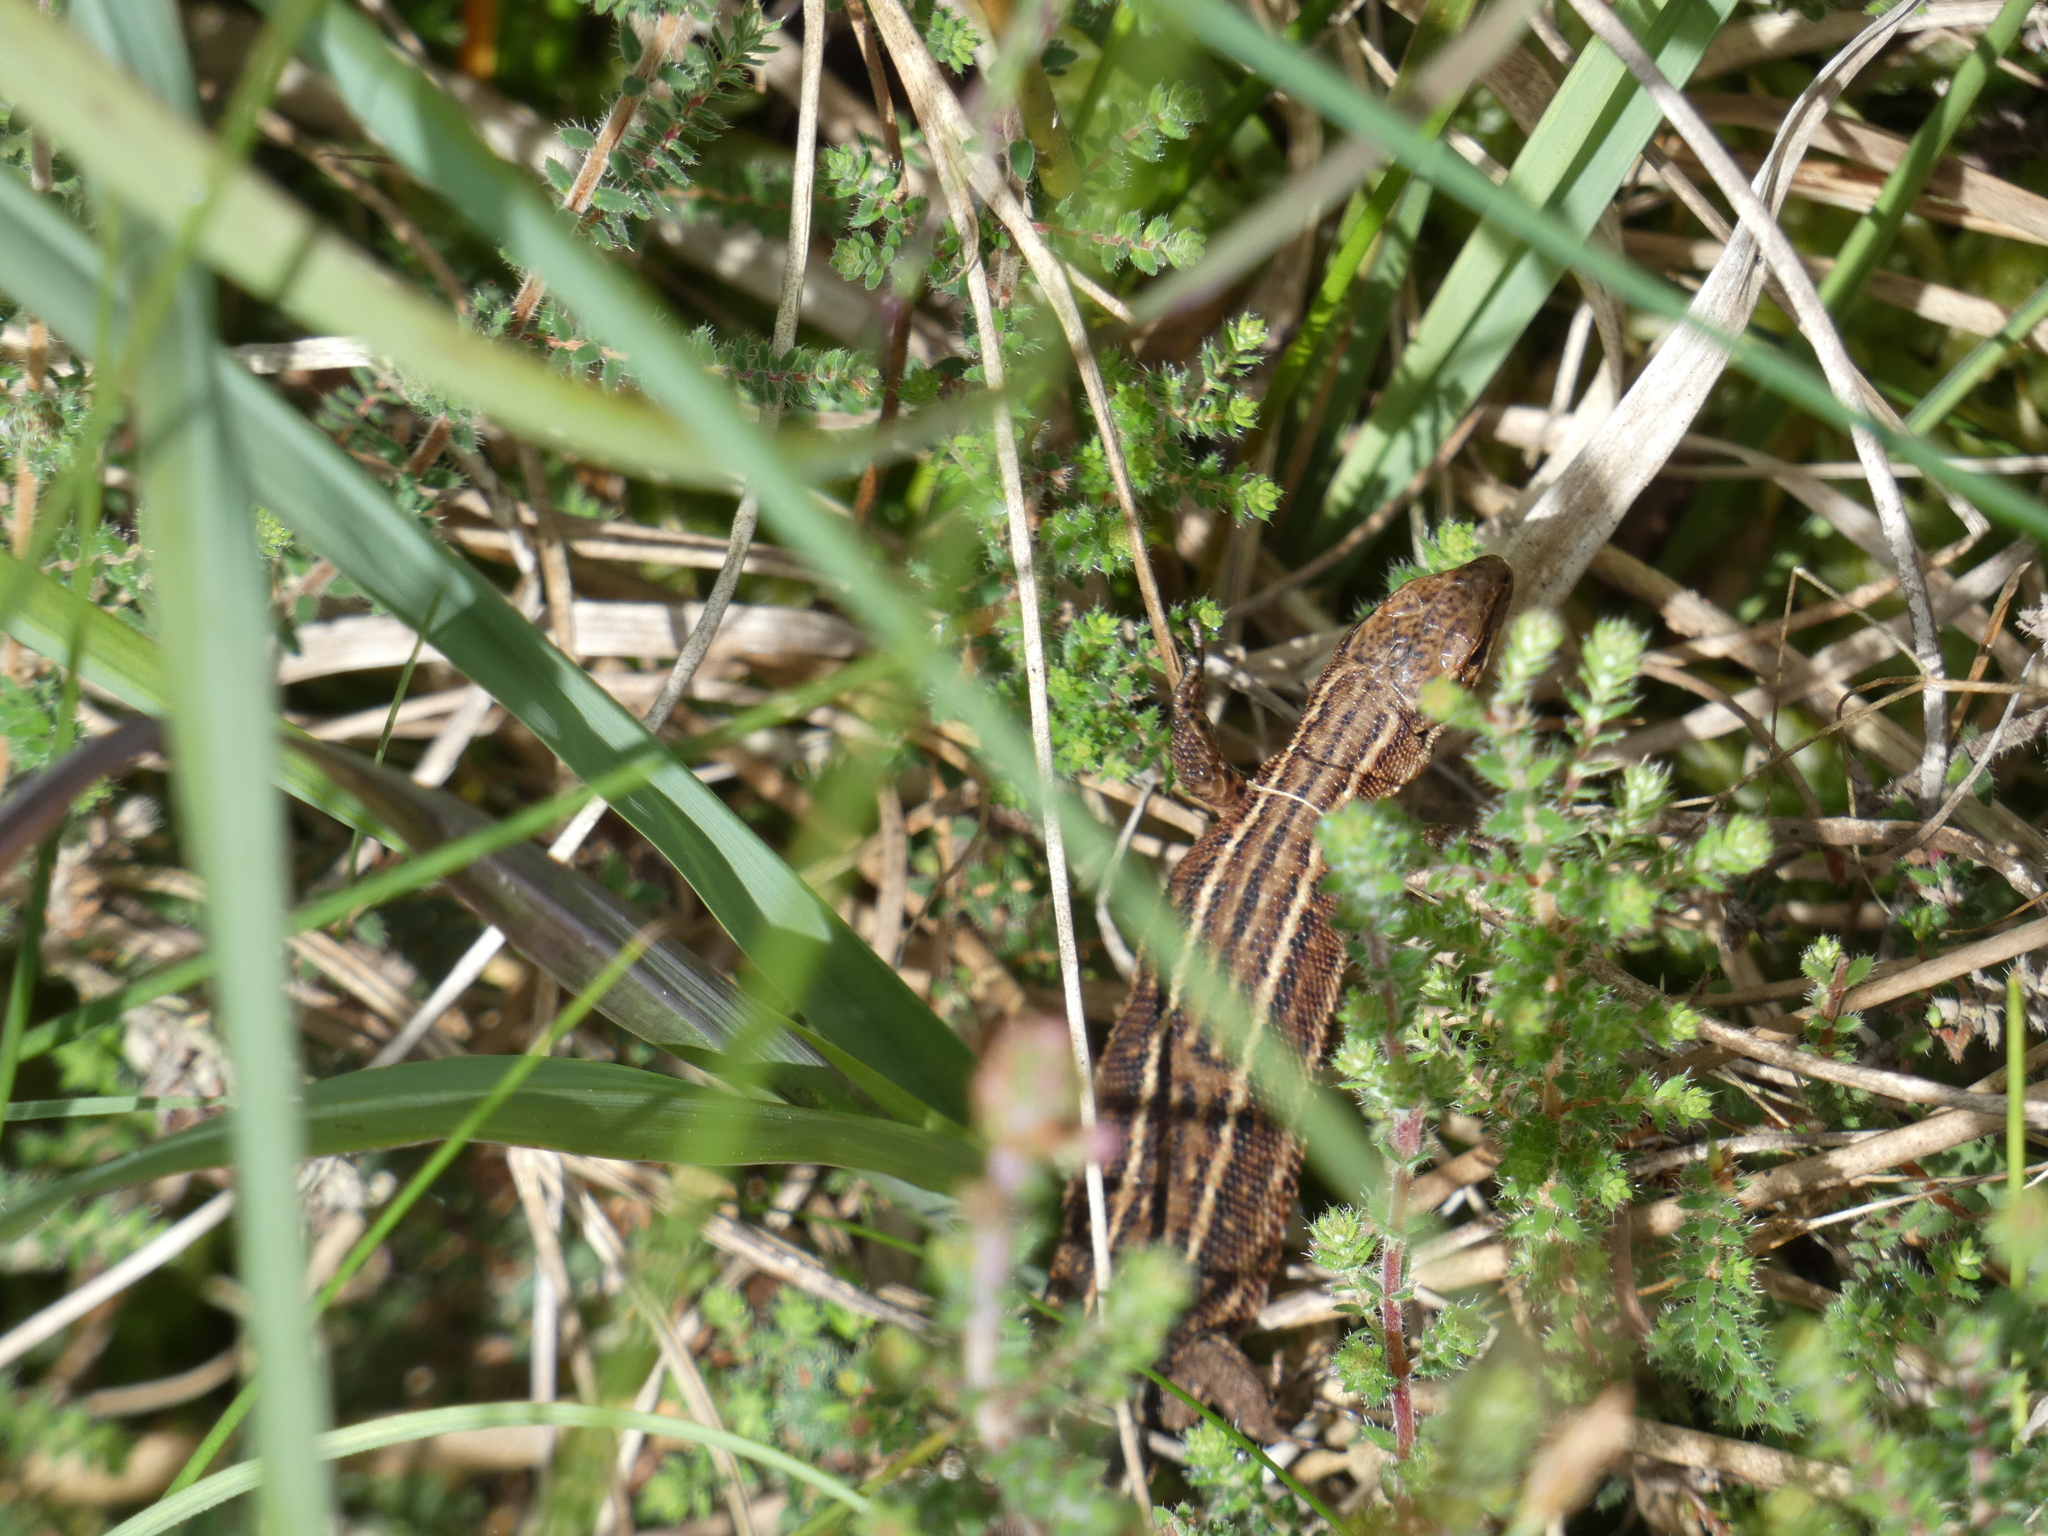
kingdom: Animalia
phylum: Chordata
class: Squamata
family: Lacertidae
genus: Zootoca
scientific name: Zootoca vivipara
